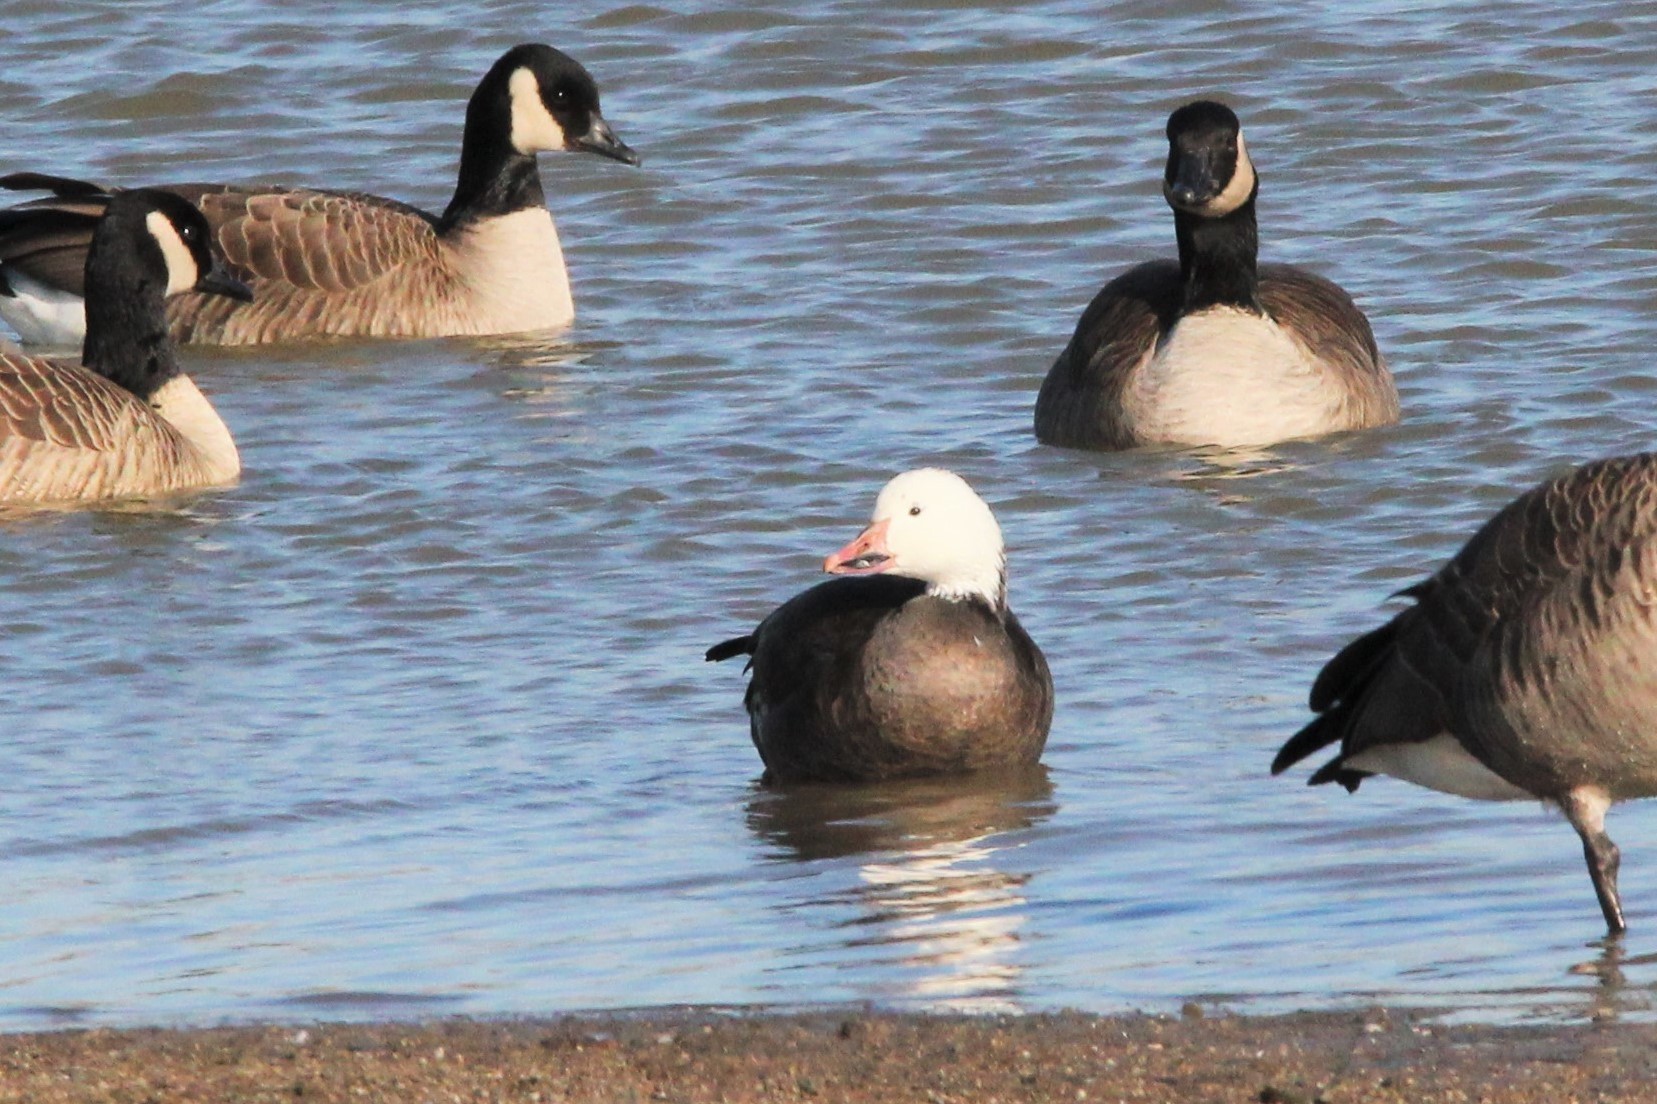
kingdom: Animalia
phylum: Chordata
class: Aves
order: Anseriformes
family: Anatidae
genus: Anser
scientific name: Anser caerulescens
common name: Snow goose
